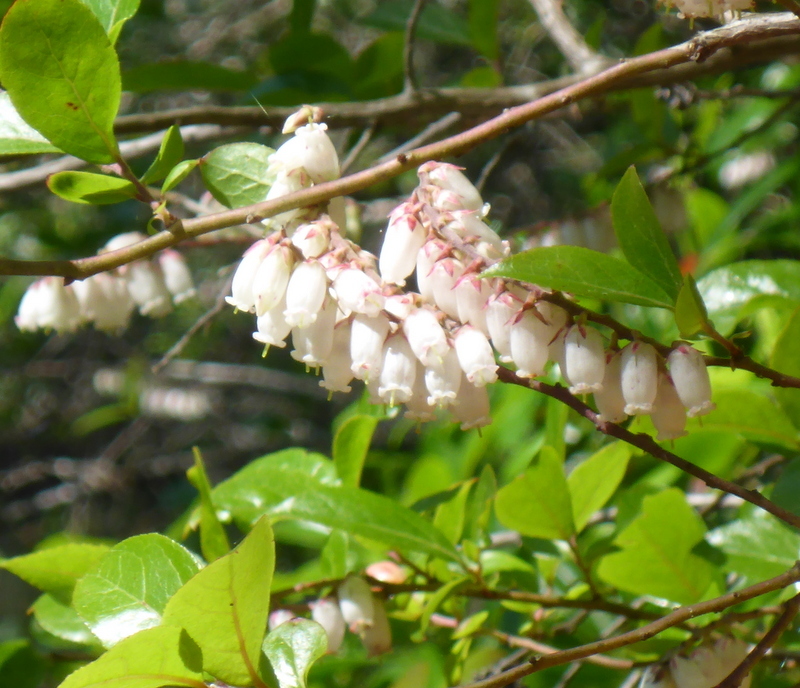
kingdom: Plantae
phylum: Tracheophyta
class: Magnoliopsida
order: Ericales
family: Ericaceae
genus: Eubotrys
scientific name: Eubotrys racemosa
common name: Fetterbush
